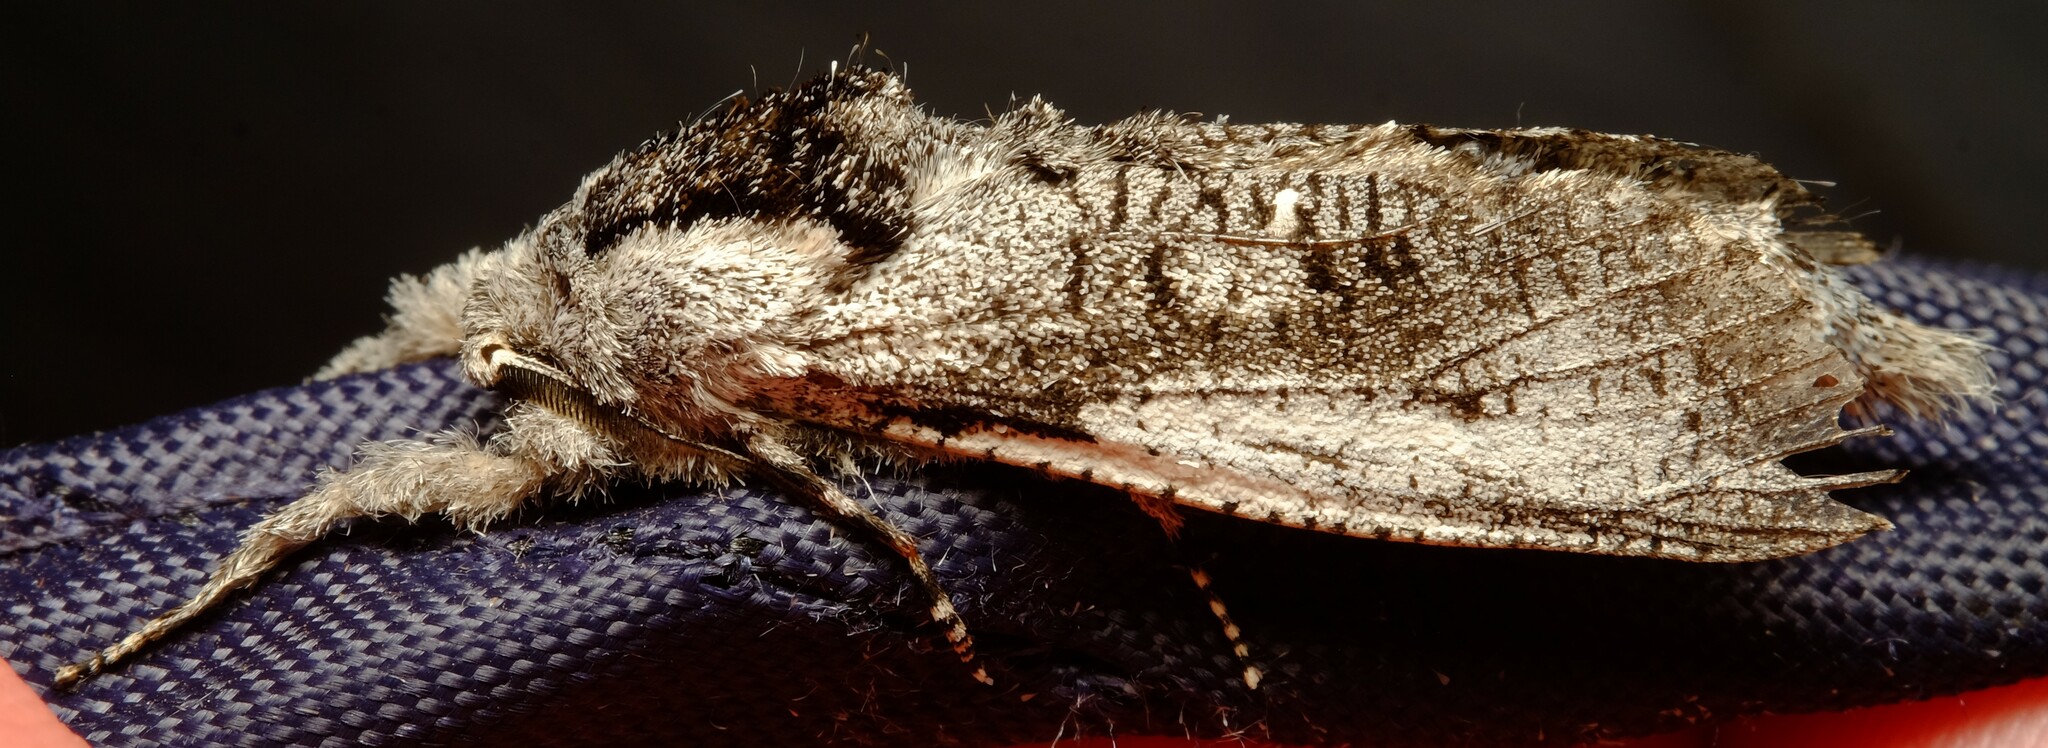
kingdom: Animalia
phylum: Arthropoda
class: Insecta
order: Lepidoptera
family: Cossidae
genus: Endoxyla
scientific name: Endoxyla secta
